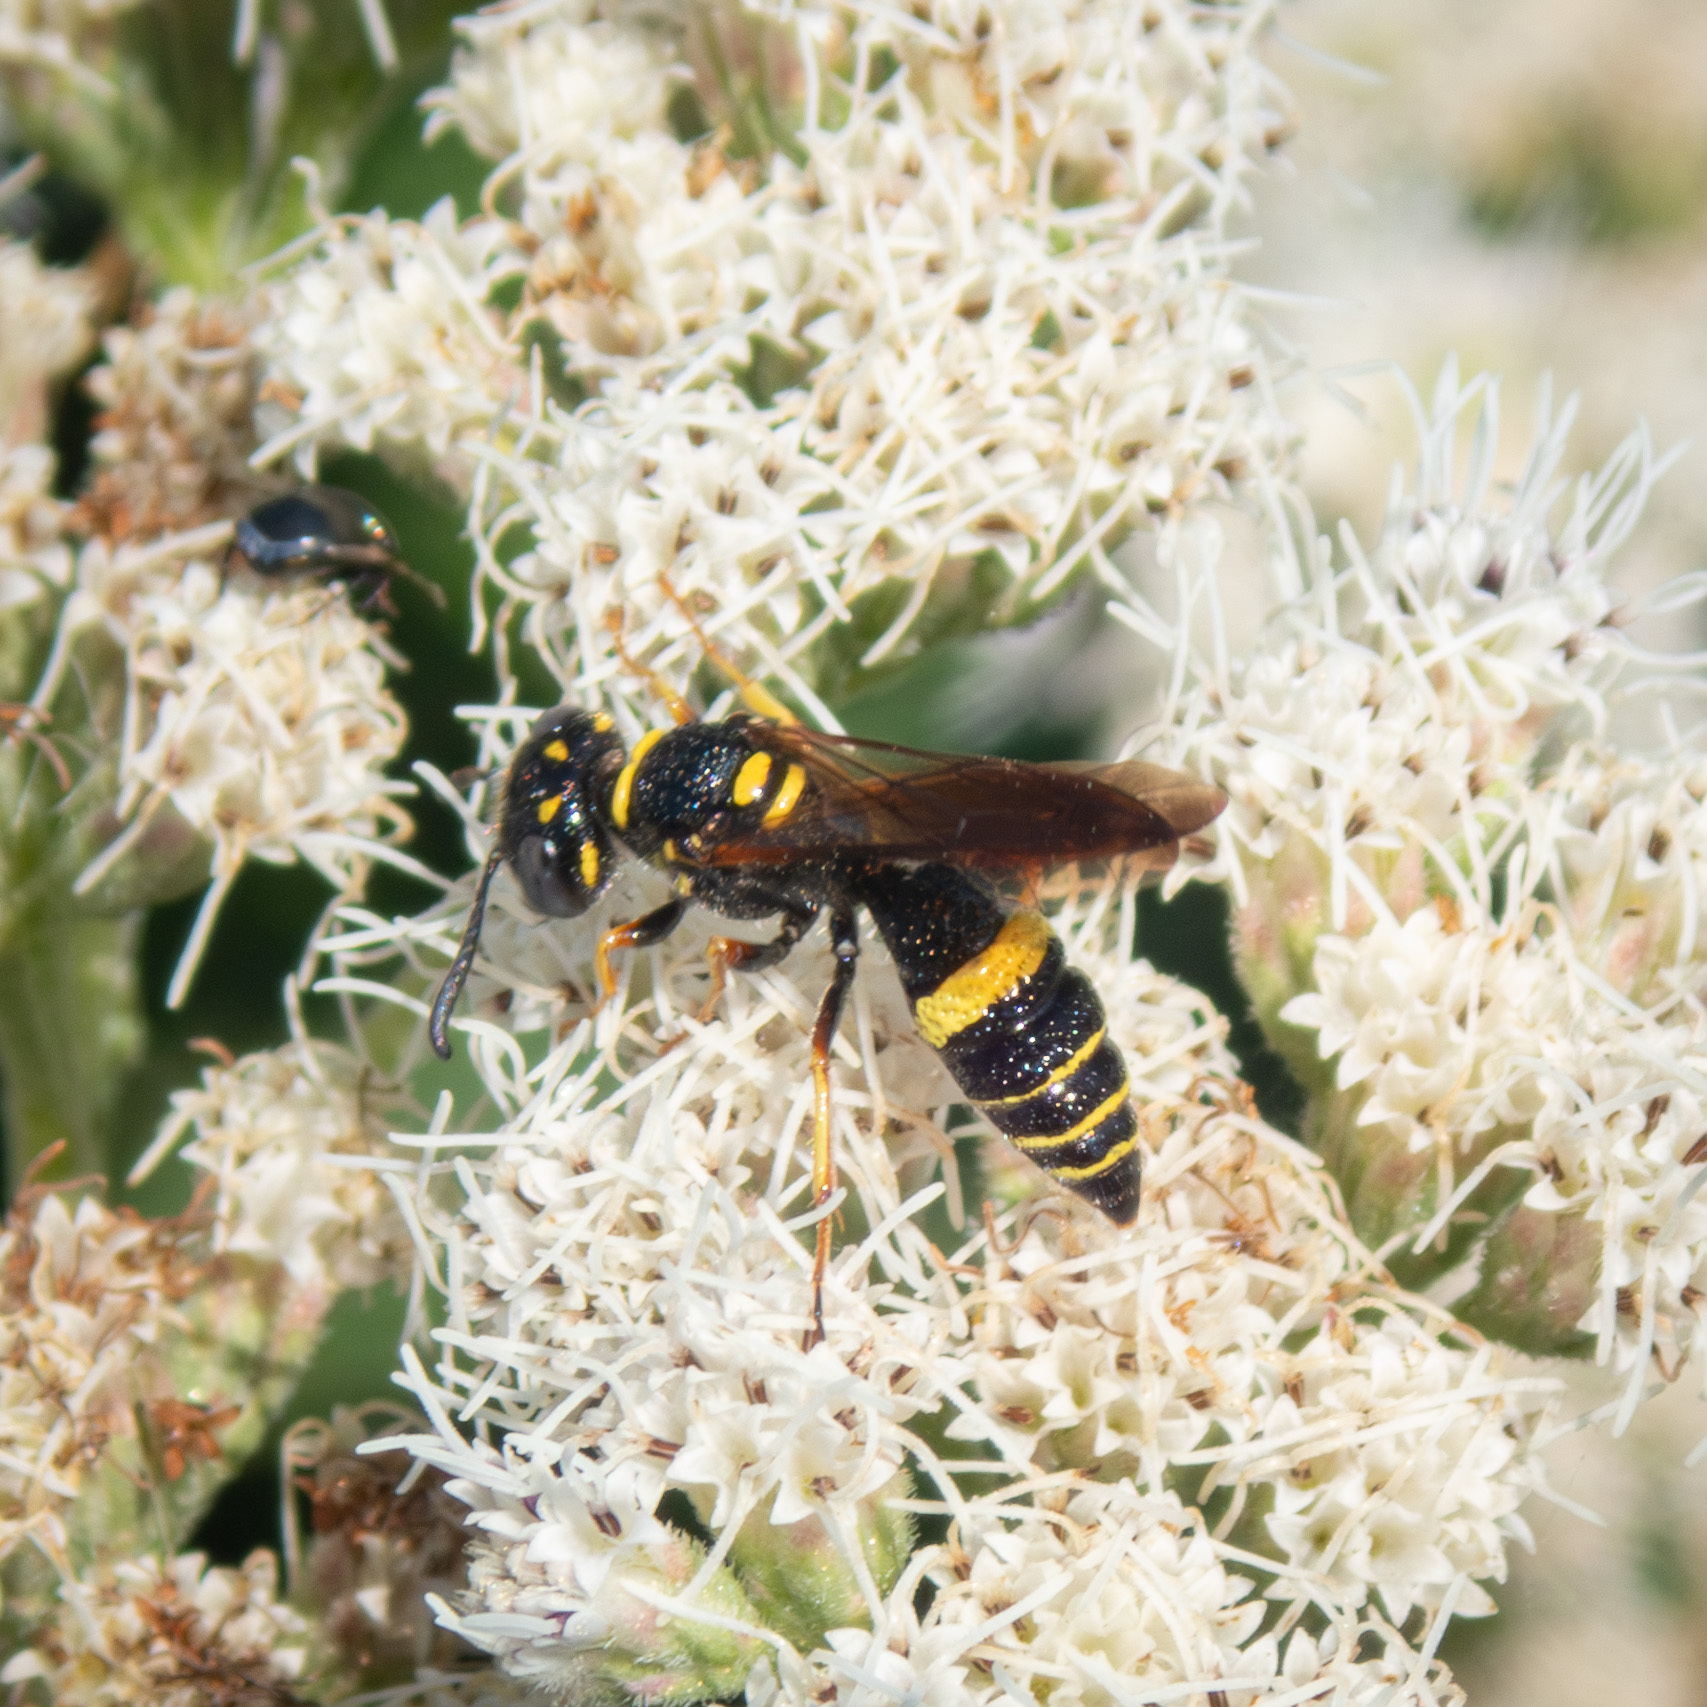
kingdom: Animalia
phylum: Arthropoda
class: Insecta
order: Hymenoptera
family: Crabronidae
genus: Philanthus
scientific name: Philanthus gibbosus
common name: Humped beewolf
